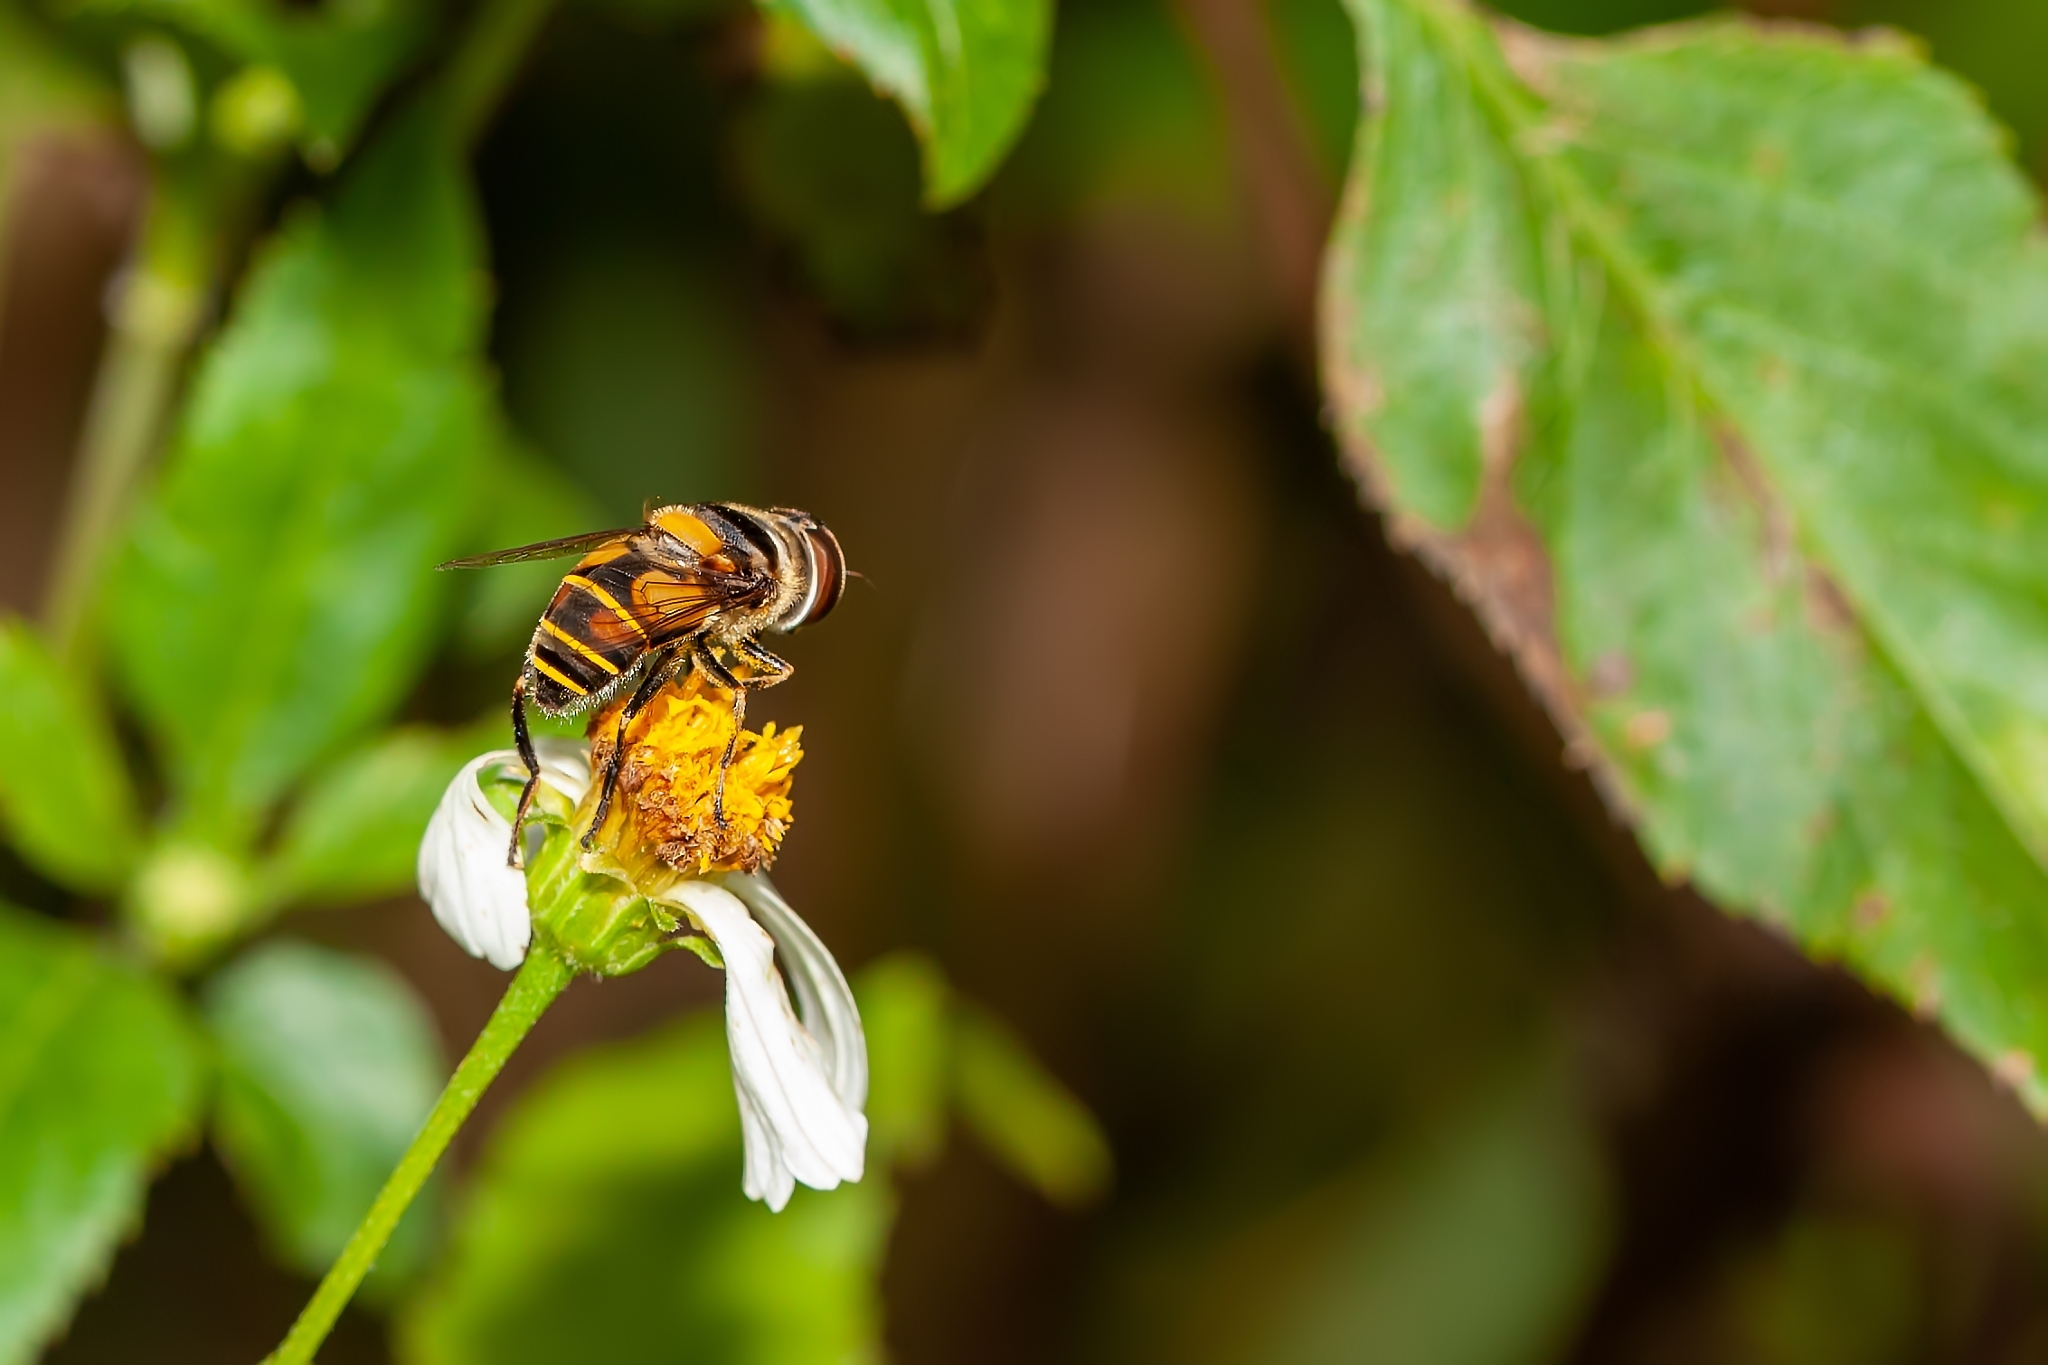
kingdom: Animalia
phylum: Arthropoda
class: Insecta
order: Diptera
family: Syrphidae
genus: Palpada
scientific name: Palpada agrorum
